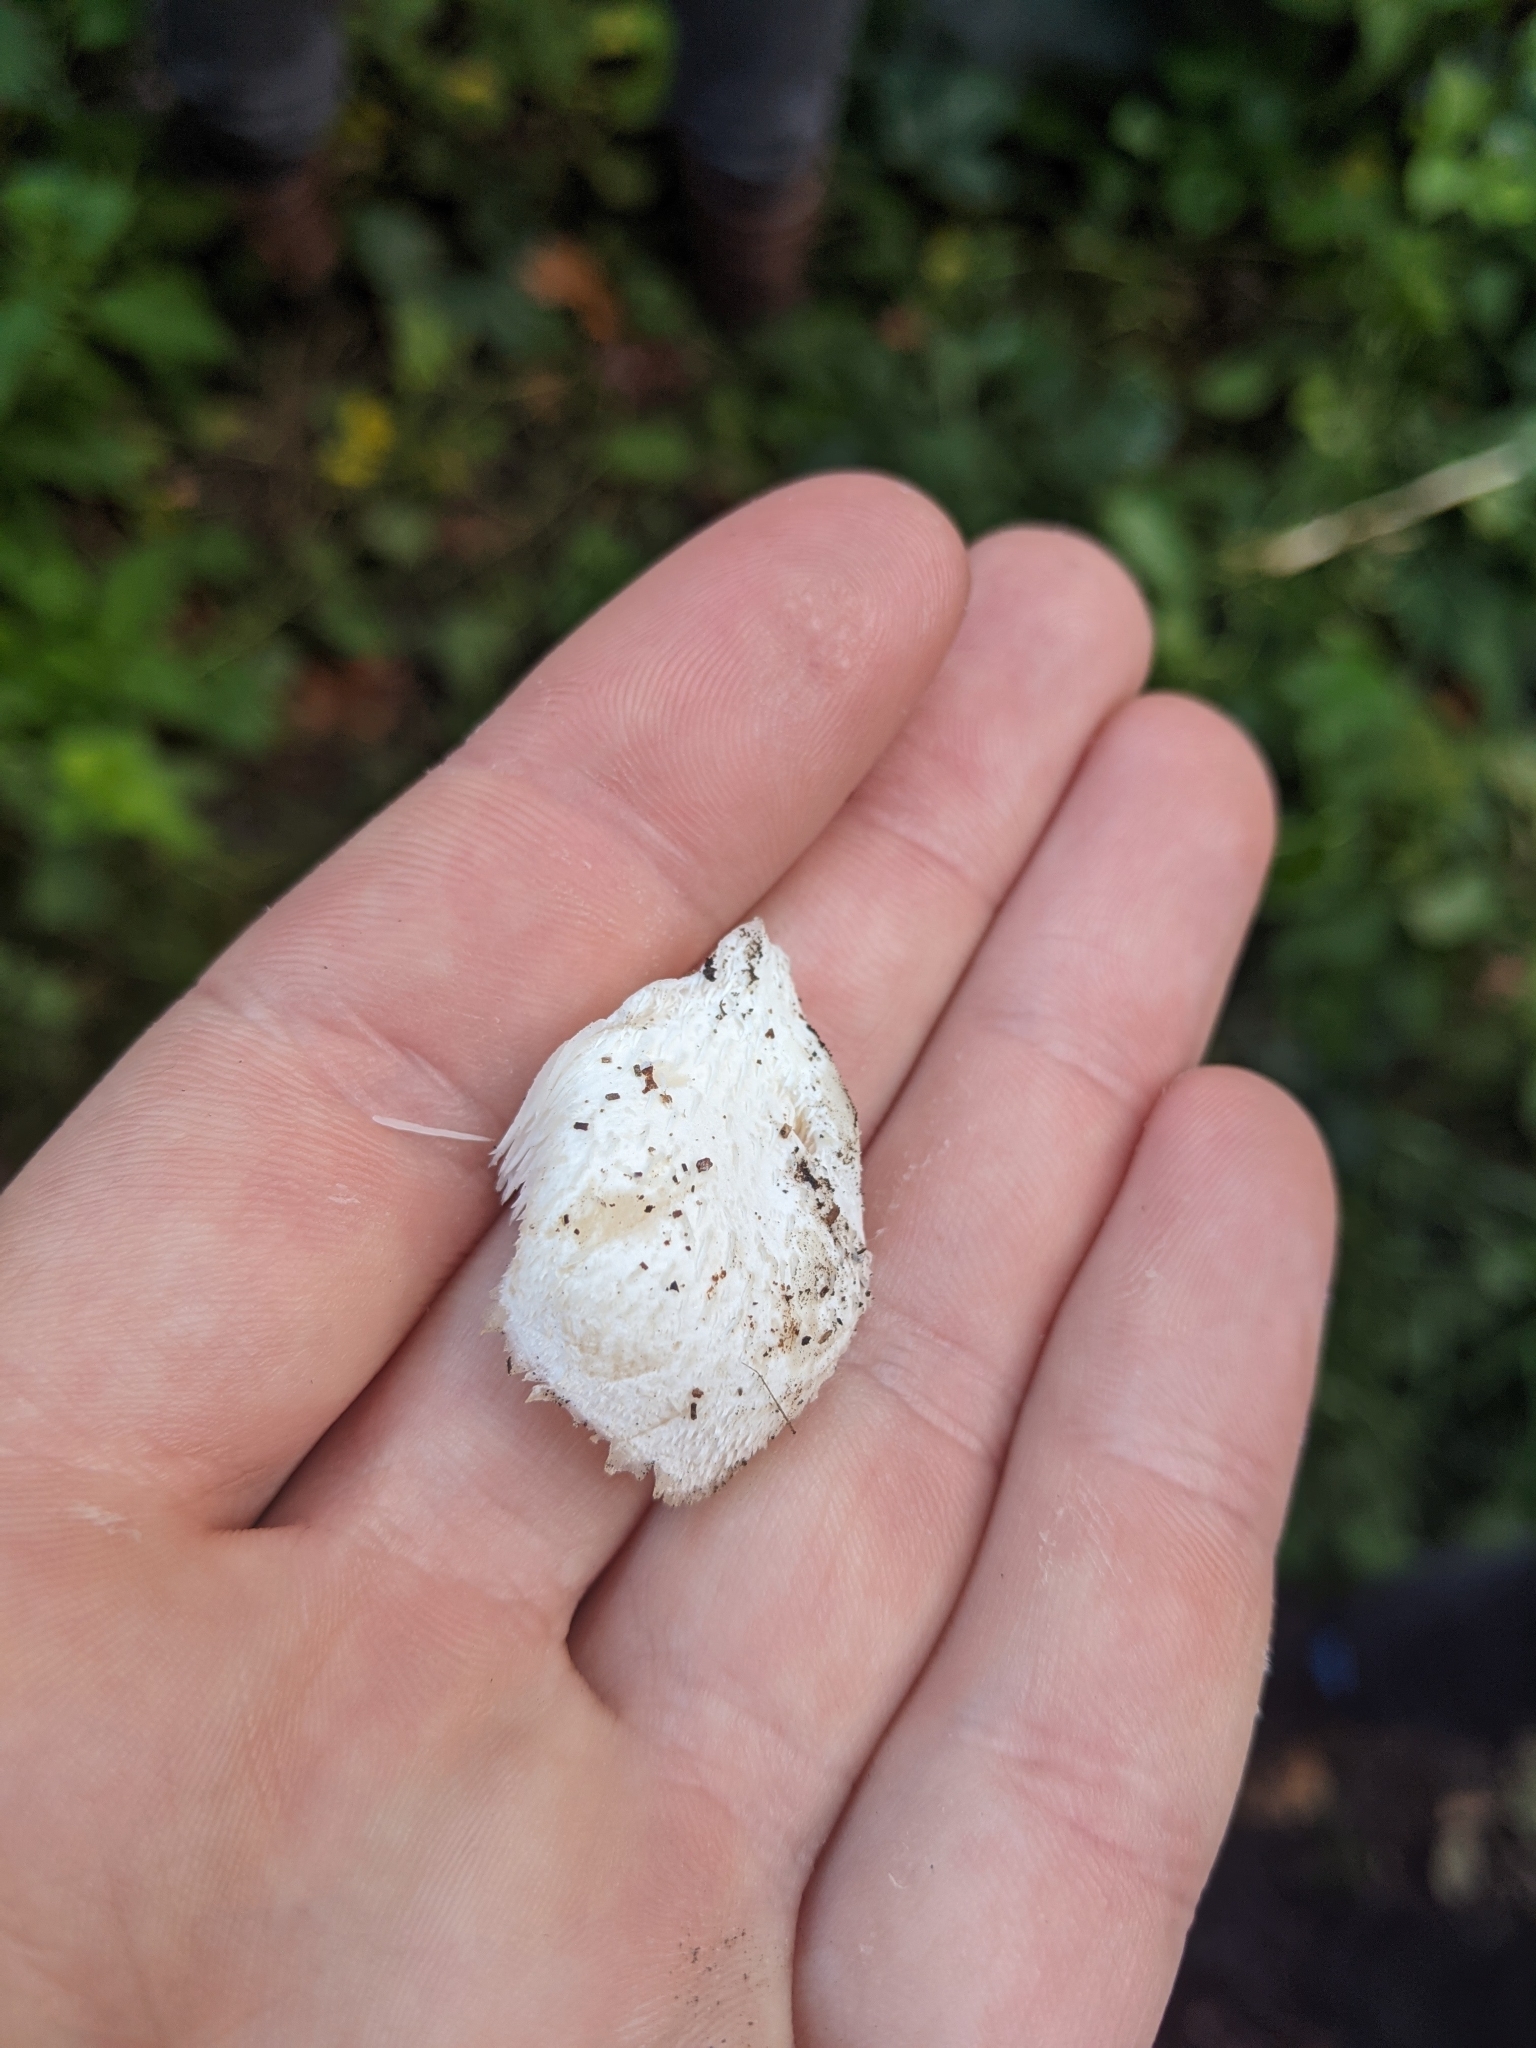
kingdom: Fungi
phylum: Basidiomycota
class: Agaricomycetes
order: Russulales
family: Hericiaceae
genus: Hericium
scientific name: Hericium cirrhatum
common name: Tiered tooth
